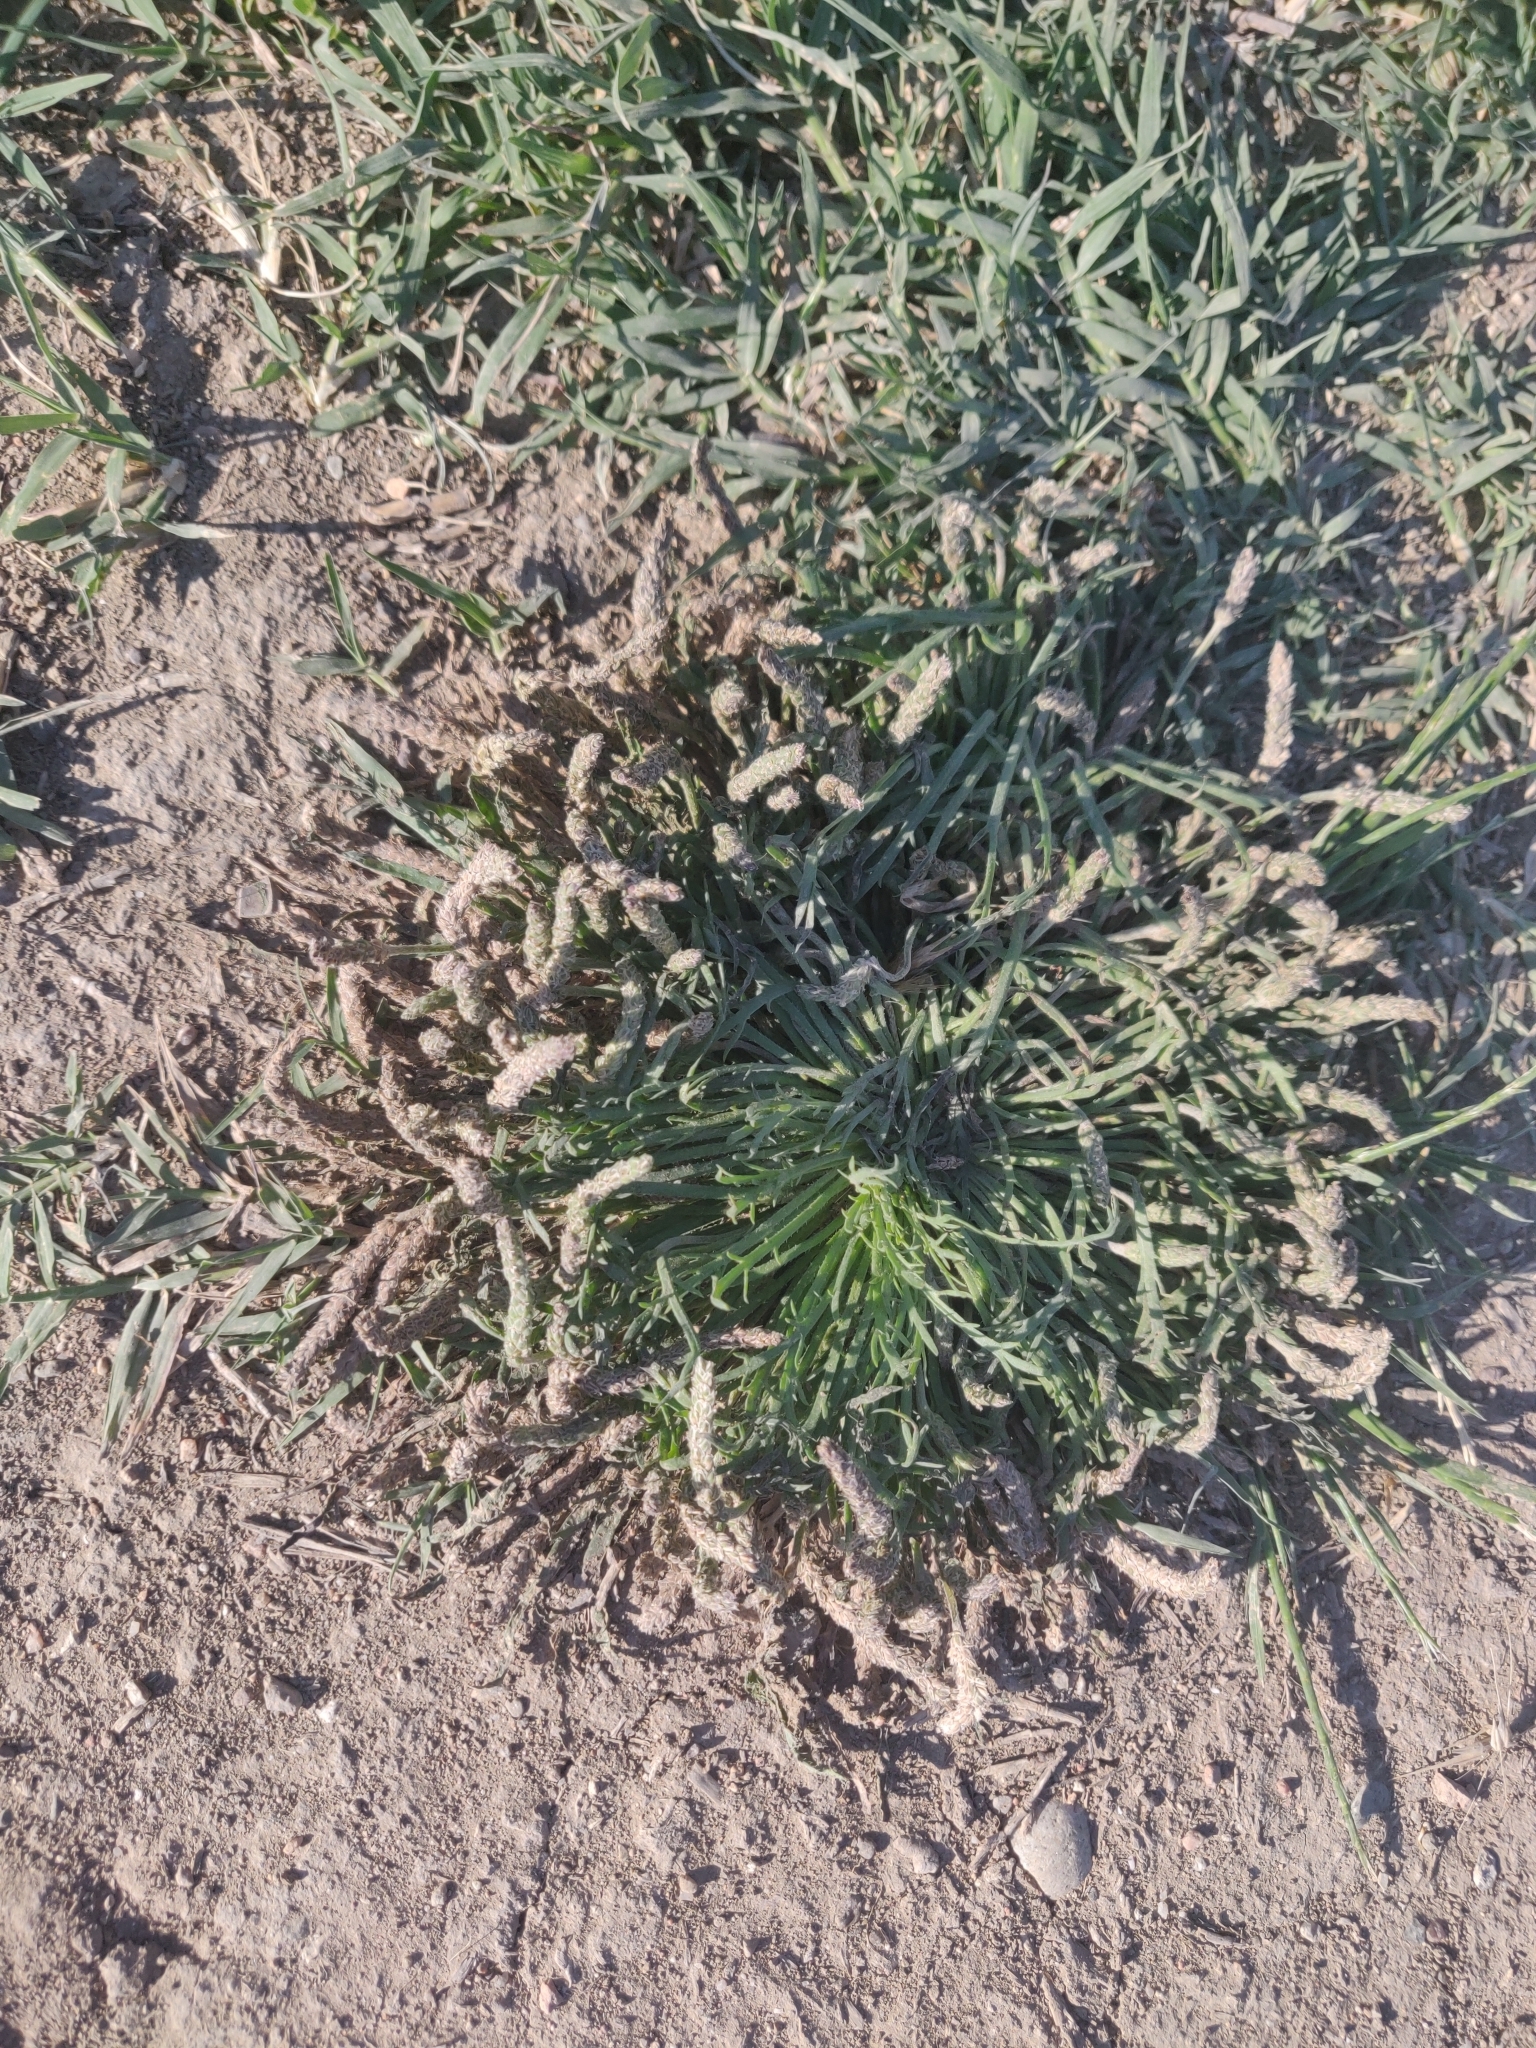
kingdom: Plantae
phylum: Tracheophyta
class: Magnoliopsida
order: Lamiales
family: Plantaginaceae
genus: Plantago
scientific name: Plantago coronopus
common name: Buck's-horn plantain
